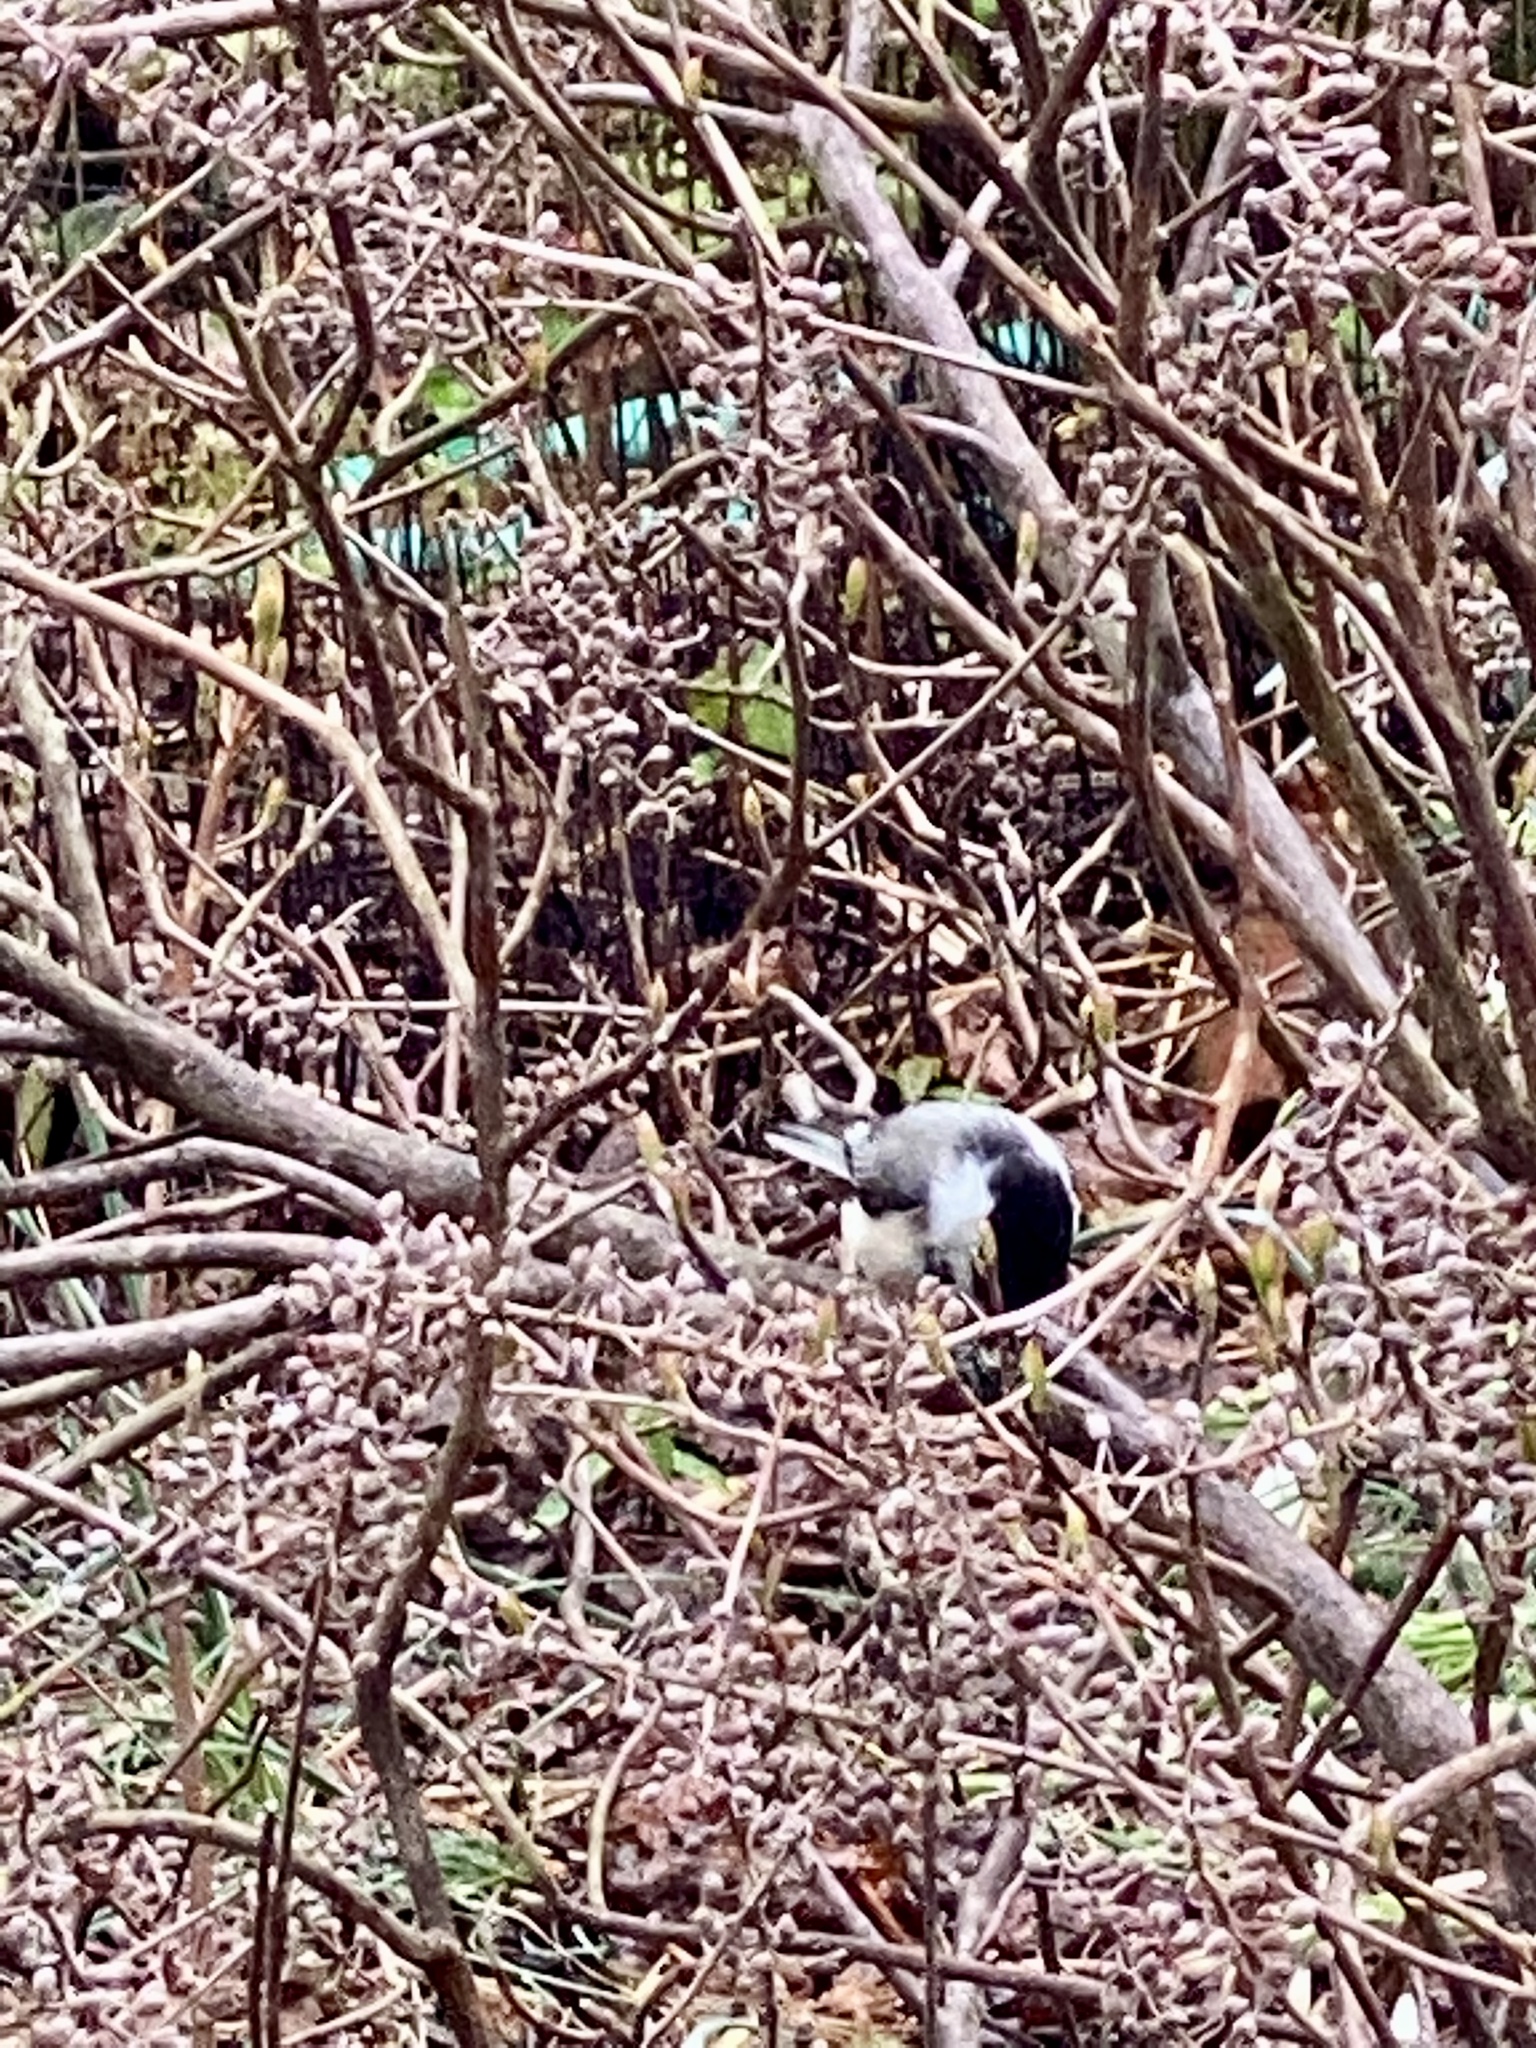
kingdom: Animalia
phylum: Chordata
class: Aves
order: Passeriformes
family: Paridae
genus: Poecile
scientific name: Poecile atricapillus
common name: Black-capped chickadee
